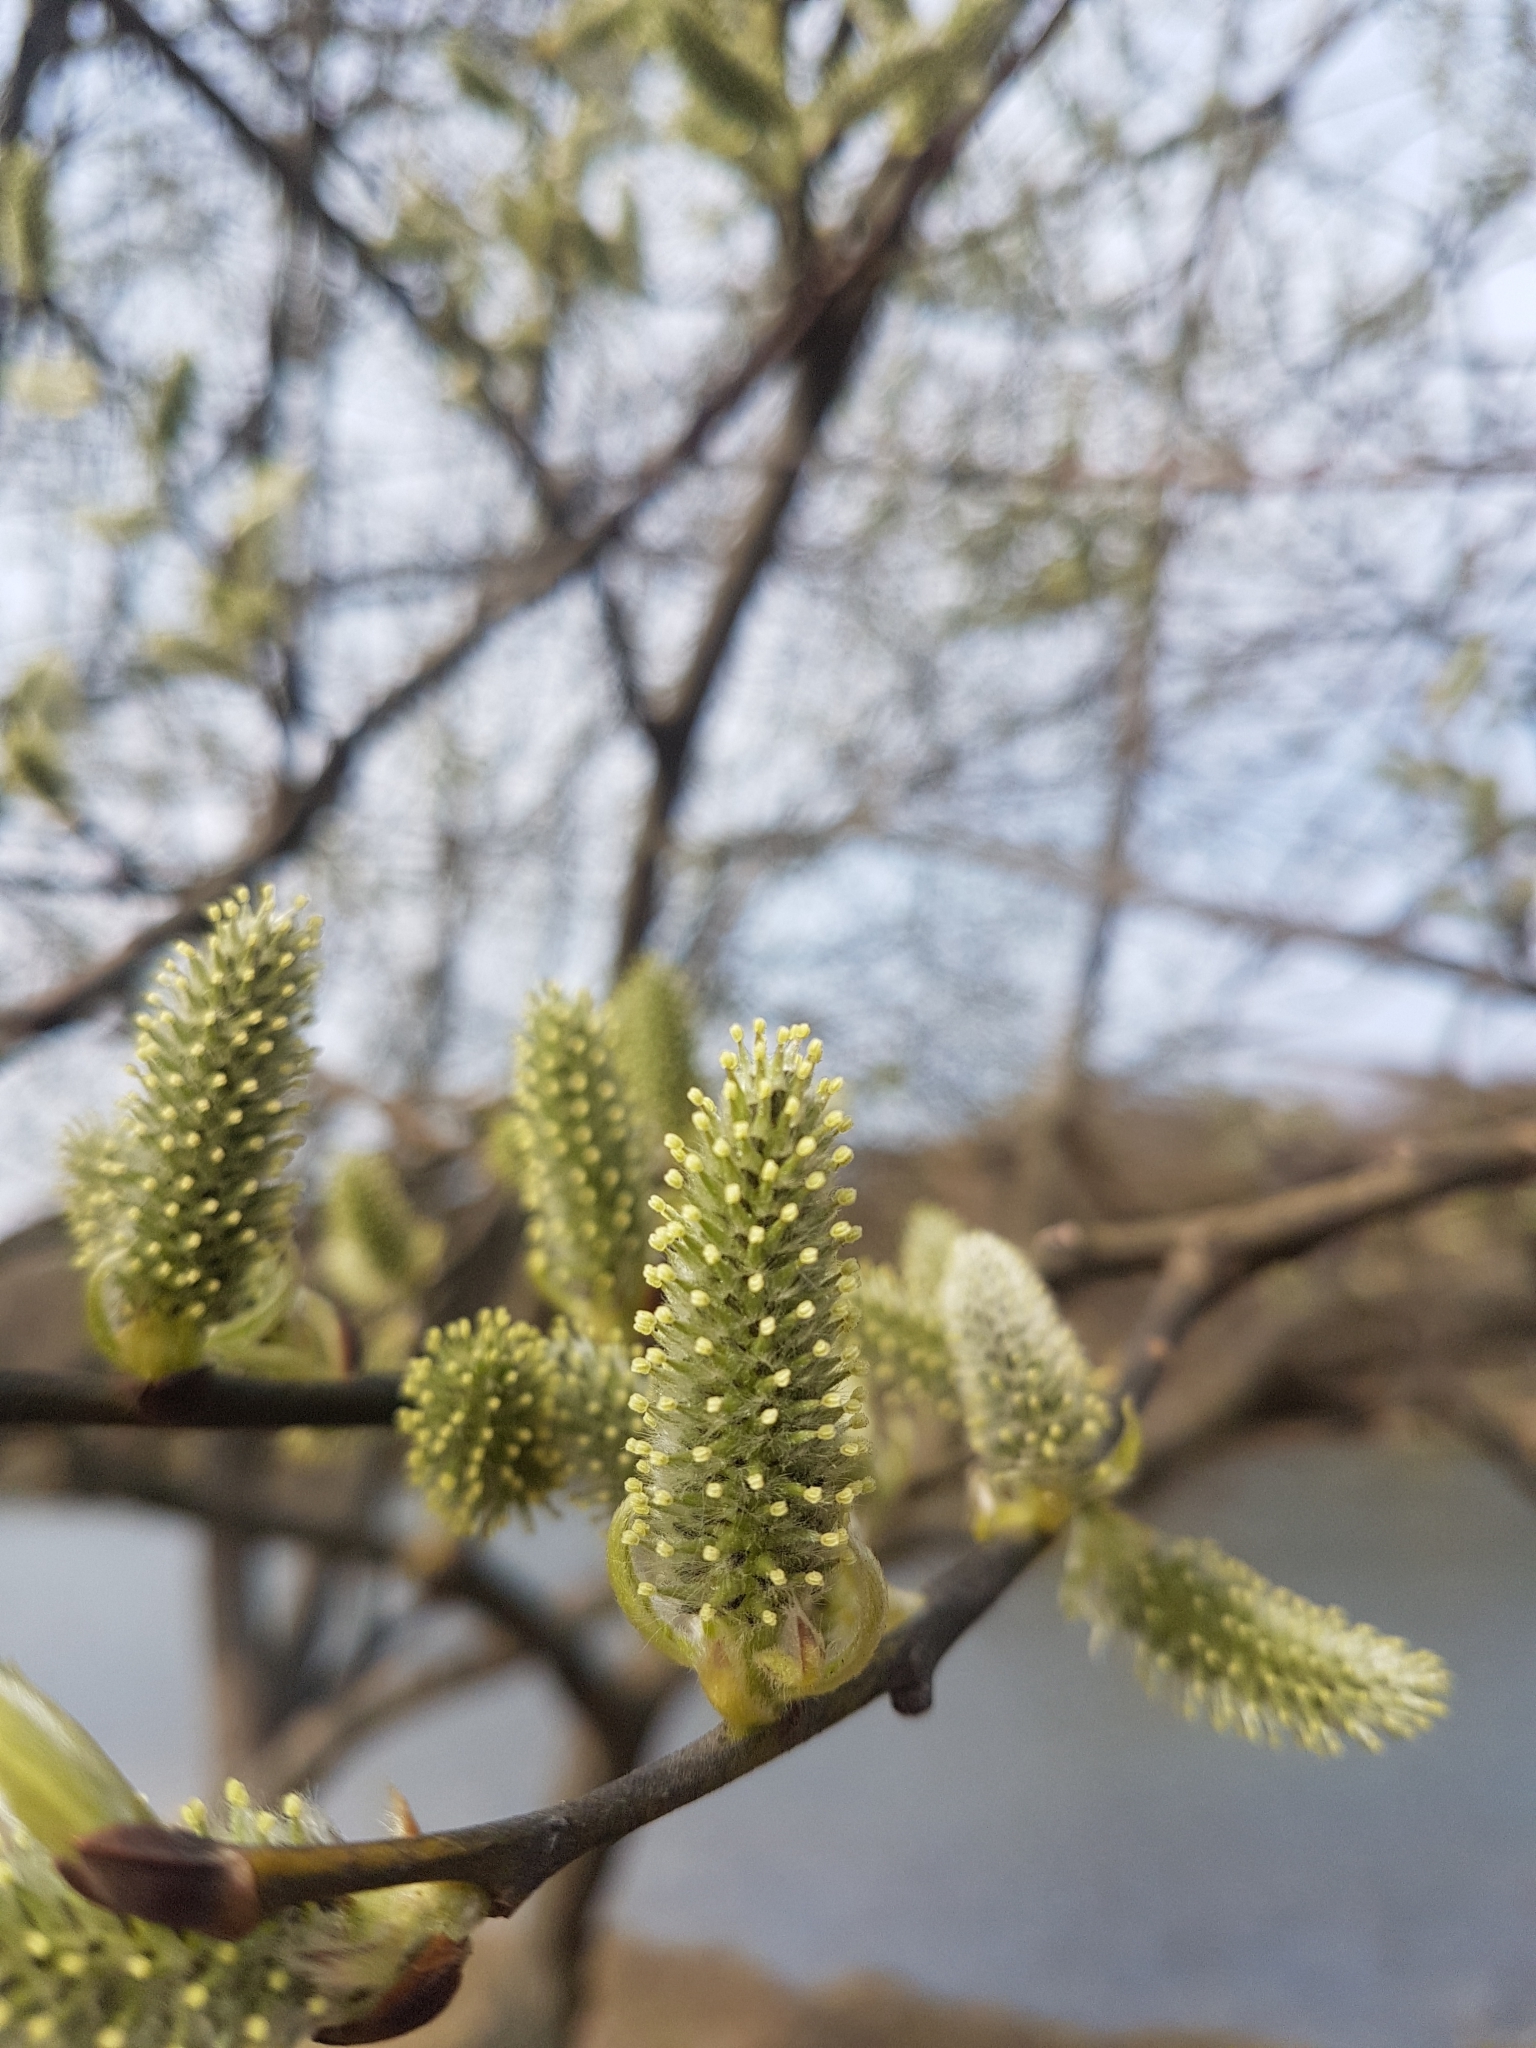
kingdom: Plantae
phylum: Tracheophyta
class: Magnoliopsida
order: Malpighiales
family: Salicaceae
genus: Salix
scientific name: Salix caprea
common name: Goat willow
